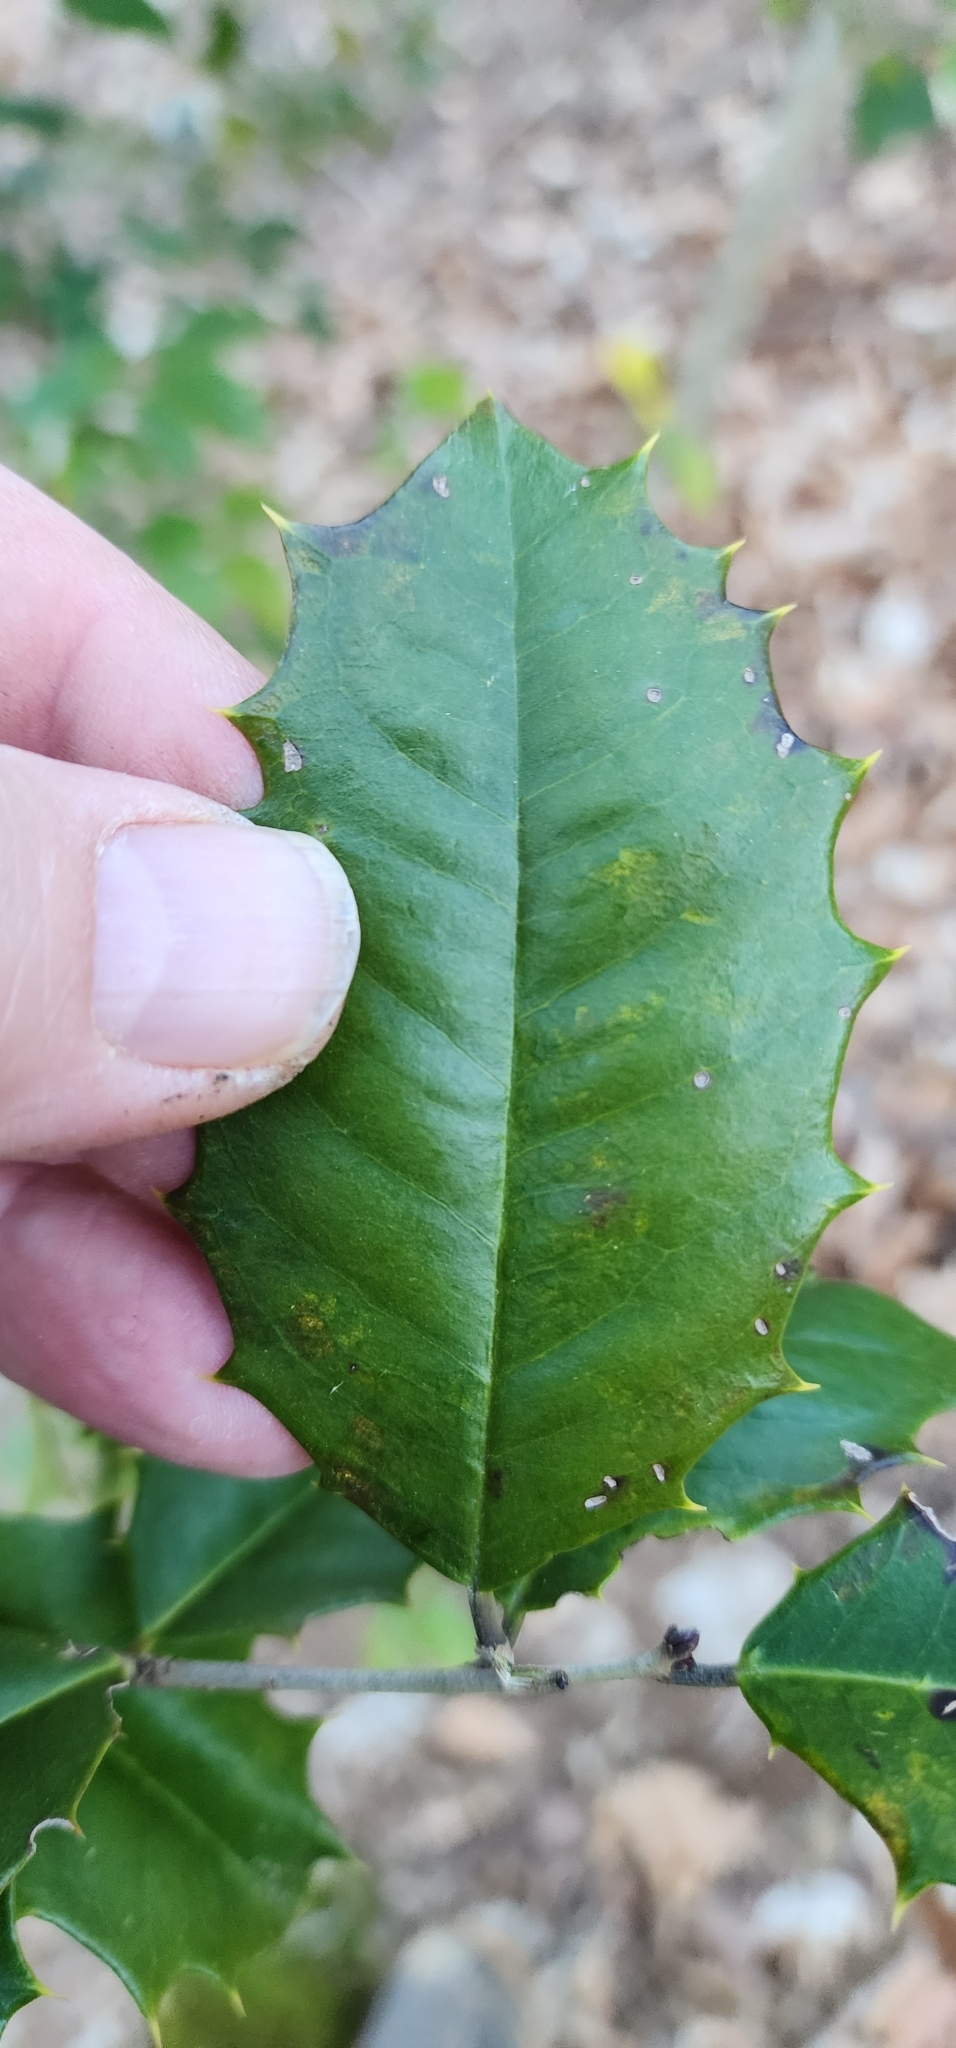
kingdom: Plantae
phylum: Tracheophyta
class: Magnoliopsida
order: Aquifoliales
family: Aquifoliaceae
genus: Ilex
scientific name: Ilex opaca
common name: American holly
